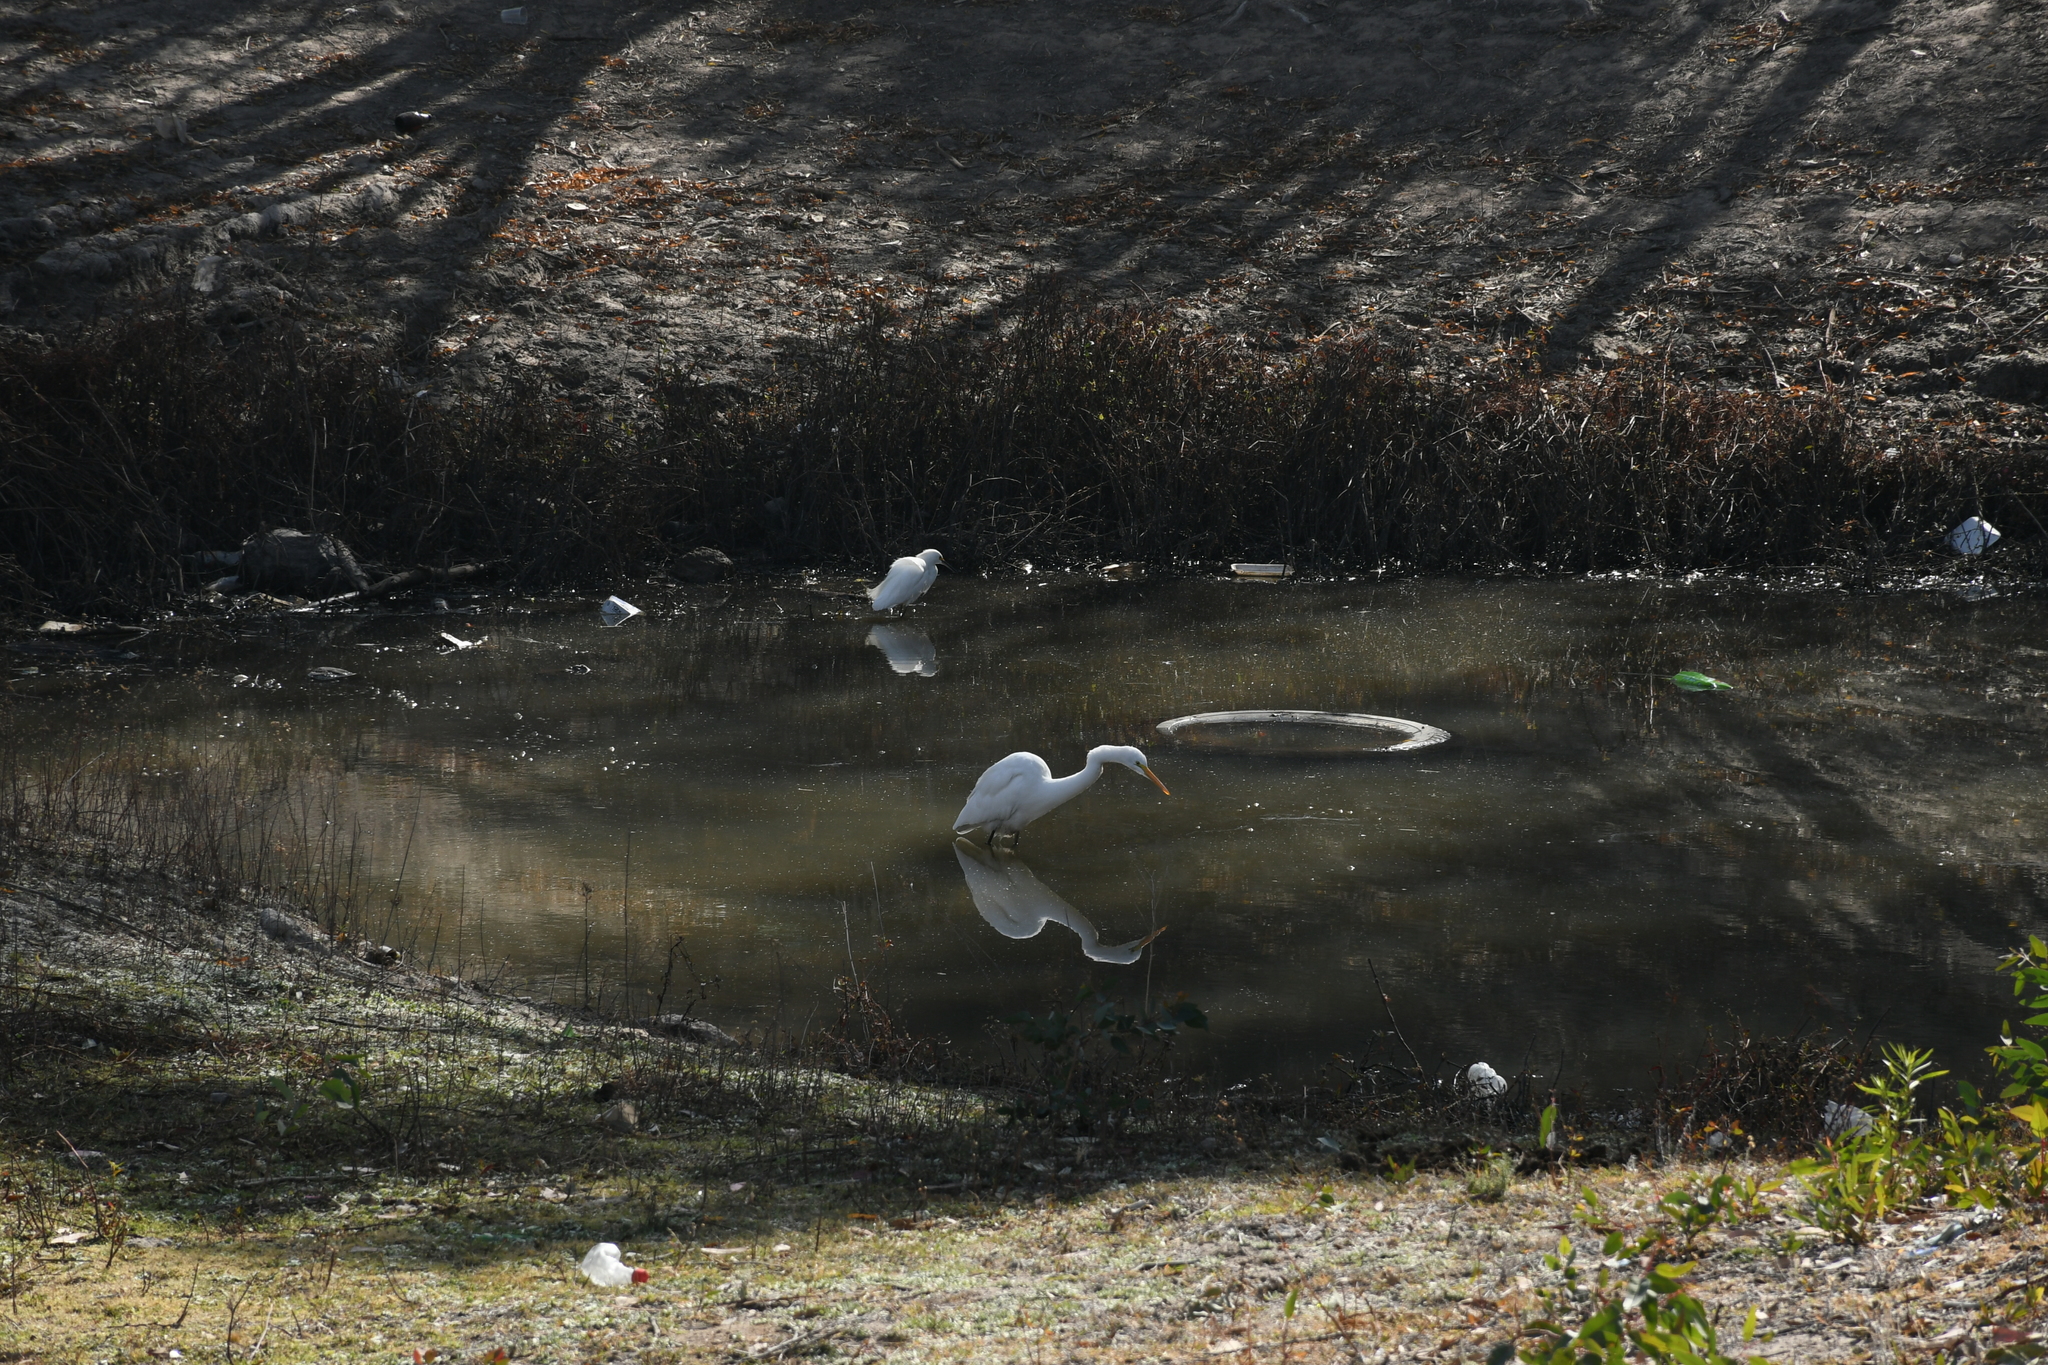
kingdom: Animalia
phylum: Chordata
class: Aves
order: Pelecaniformes
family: Ardeidae
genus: Ardea
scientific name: Ardea alba
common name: Great egret
